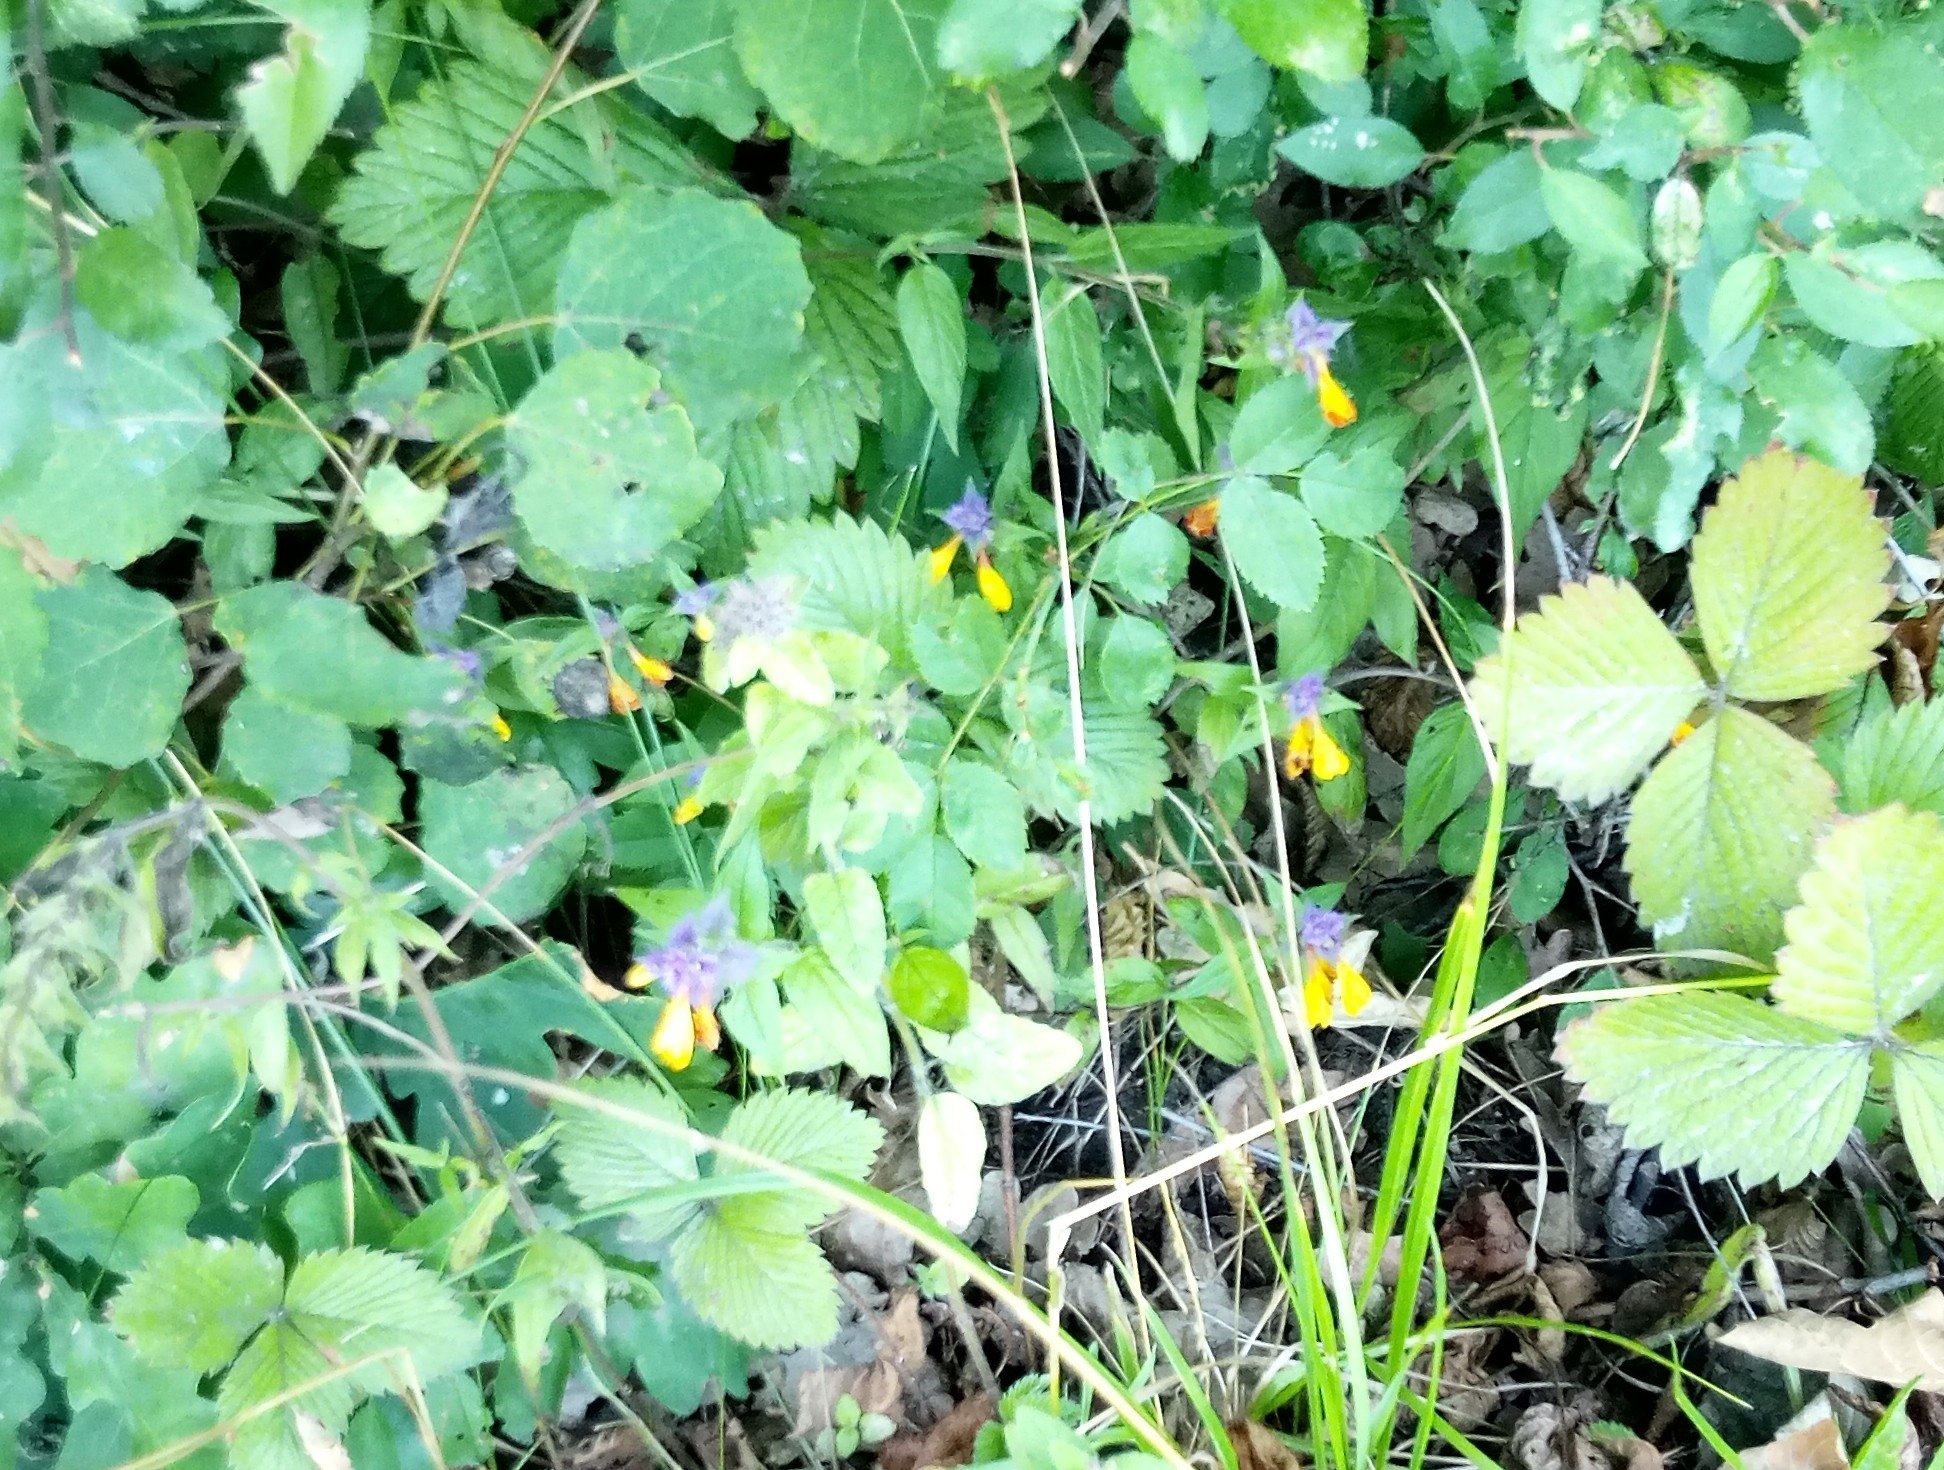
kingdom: Plantae
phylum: Tracheophyta
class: Magnoliopsida
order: Lamiales
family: Orobanchaceae
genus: Melampyrum
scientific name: Melampyrum nemorosum
